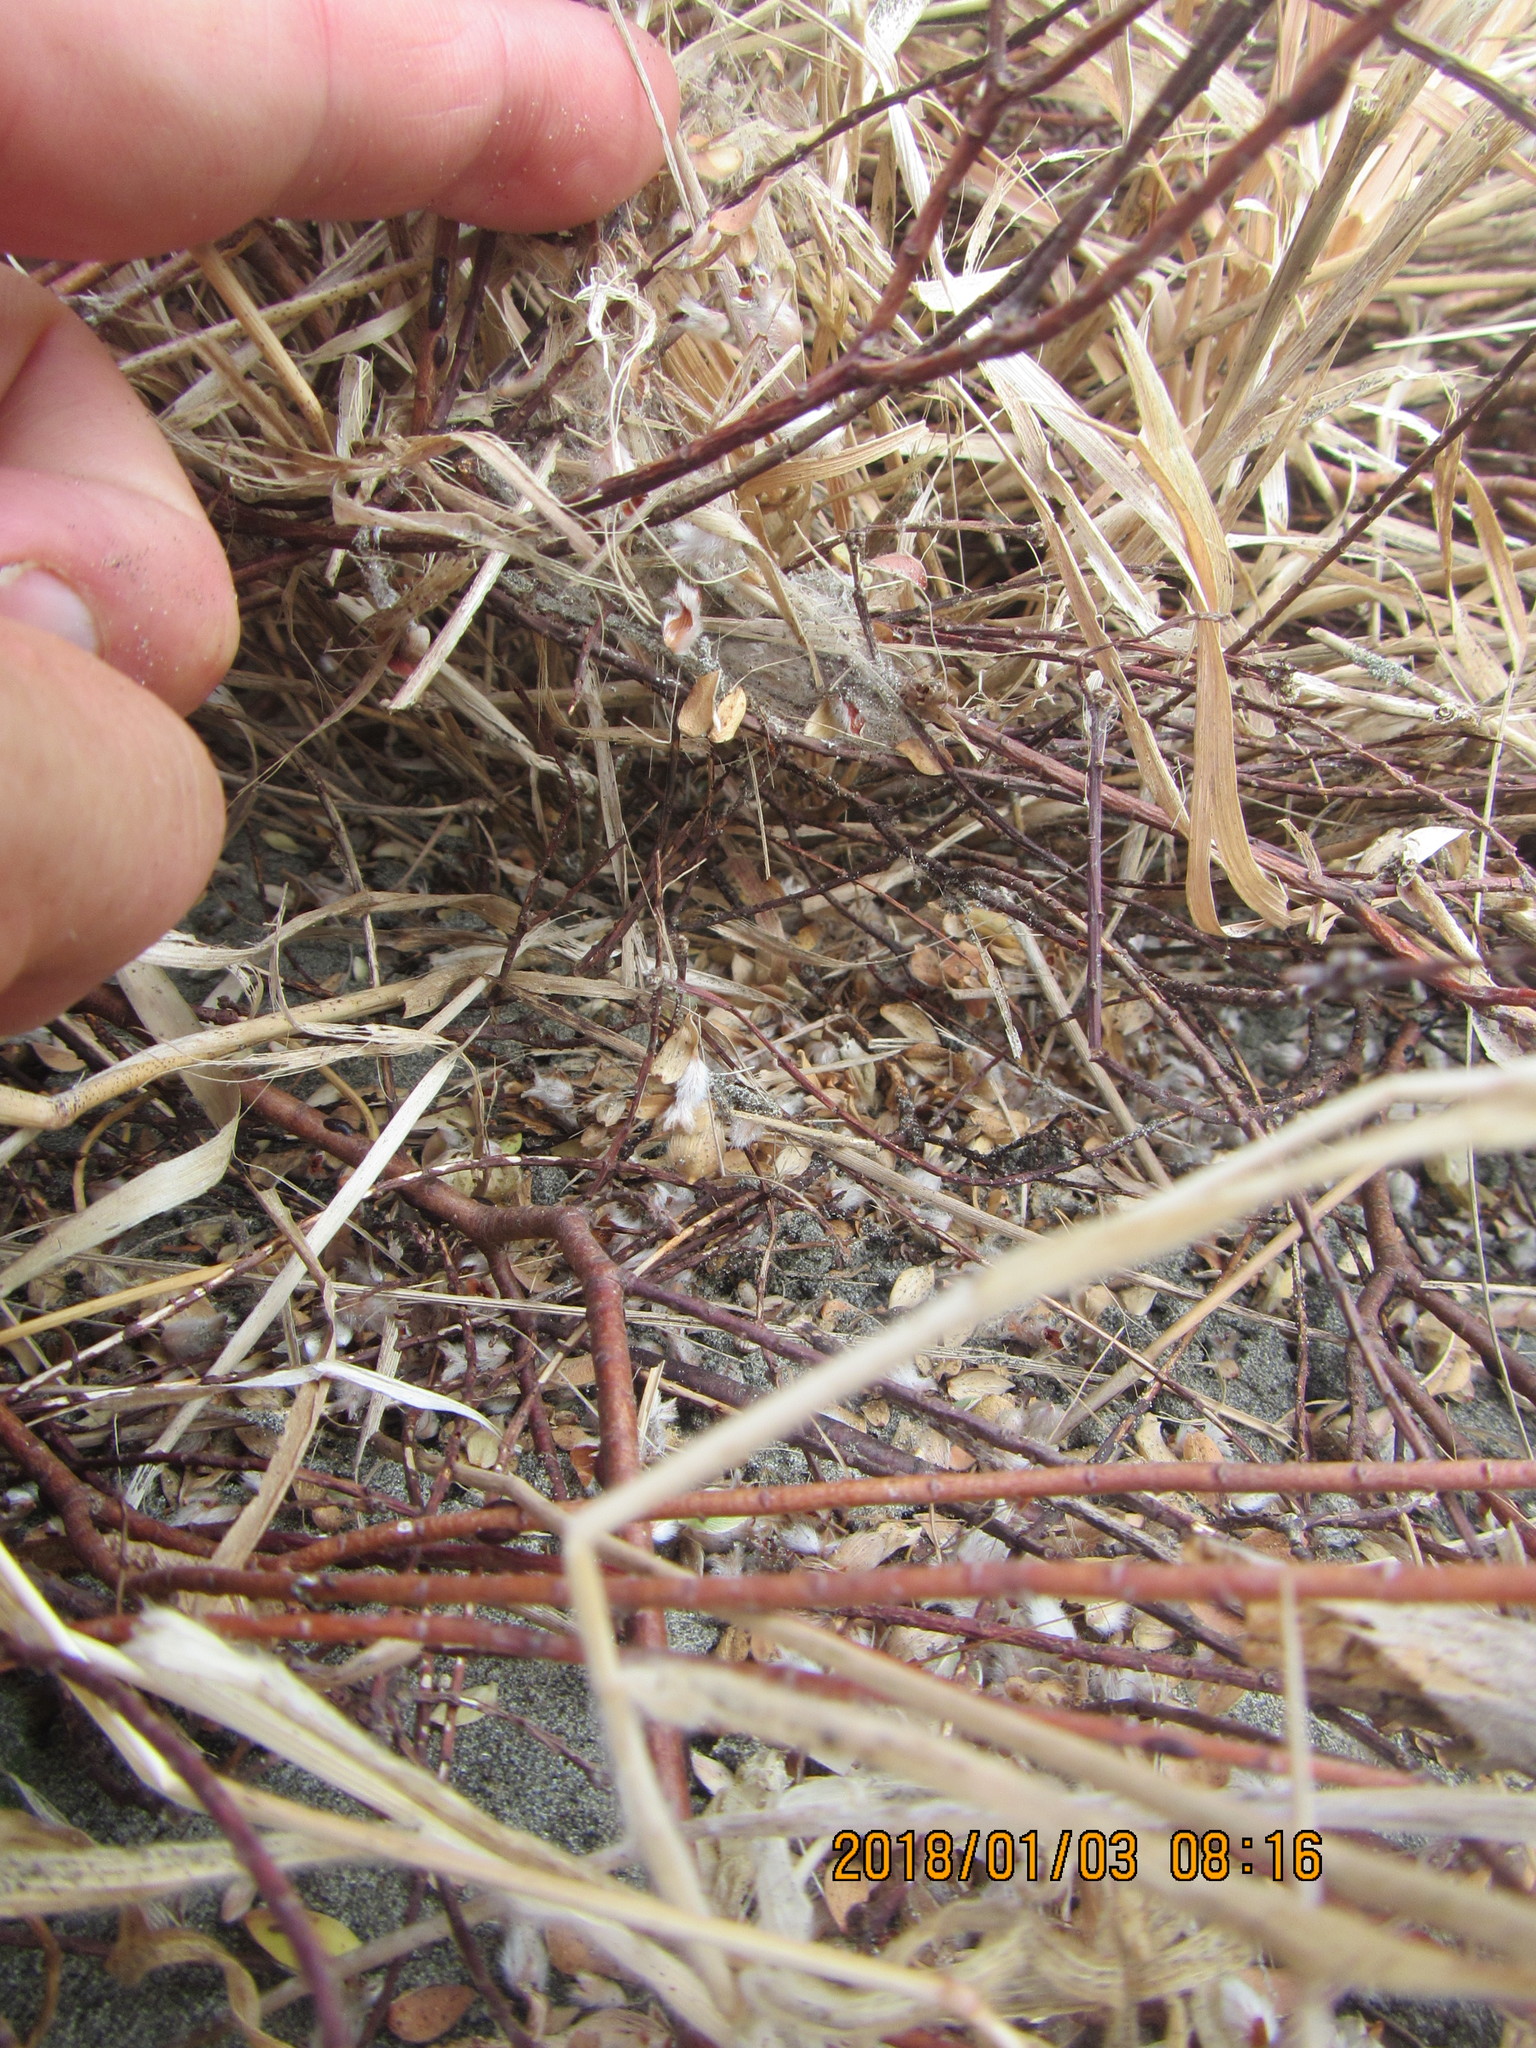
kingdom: Plantae
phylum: Tracheophyta
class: Magnoliopsida
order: Malvales
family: Thymelaeaceae
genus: Pimelea
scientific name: Pimelea villosa
